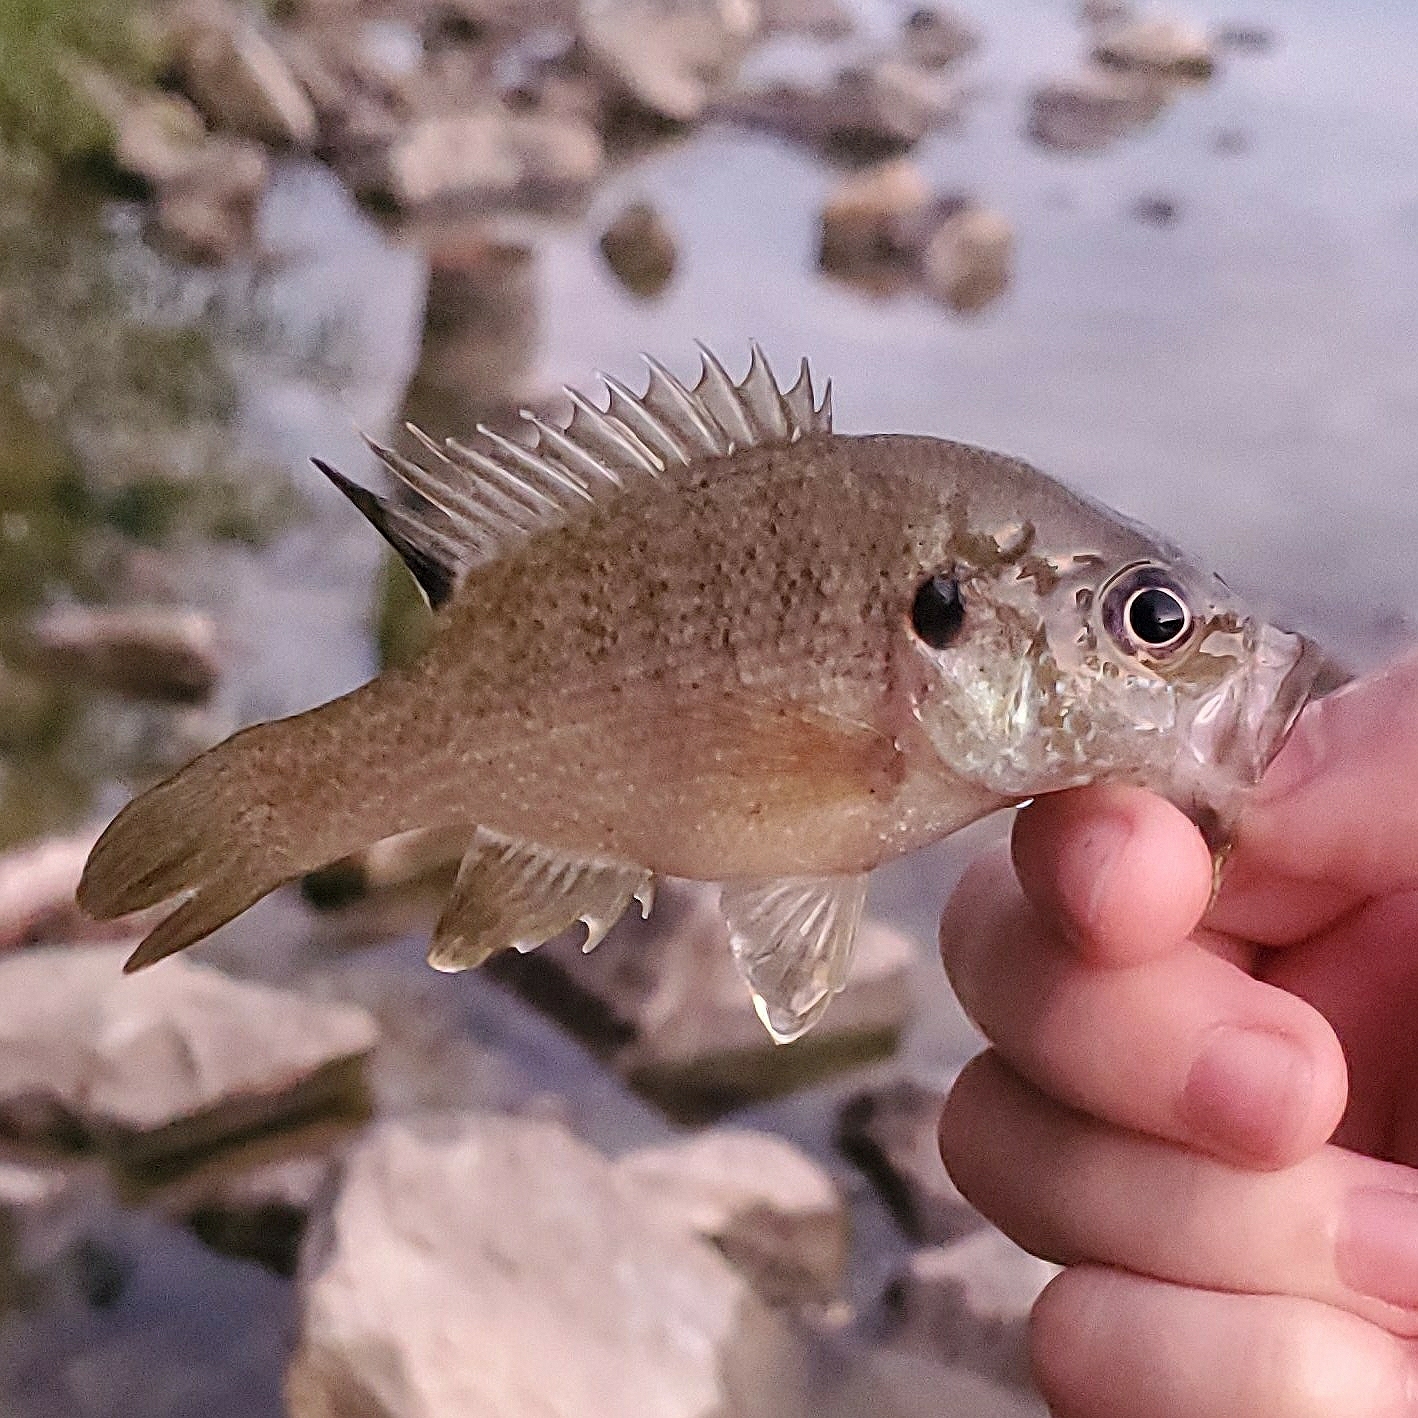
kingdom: Animalia
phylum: Chordata
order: Perciformes
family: Centrarchidae
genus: Lepomis
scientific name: Lepomis cyanellus
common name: Green sunfish
